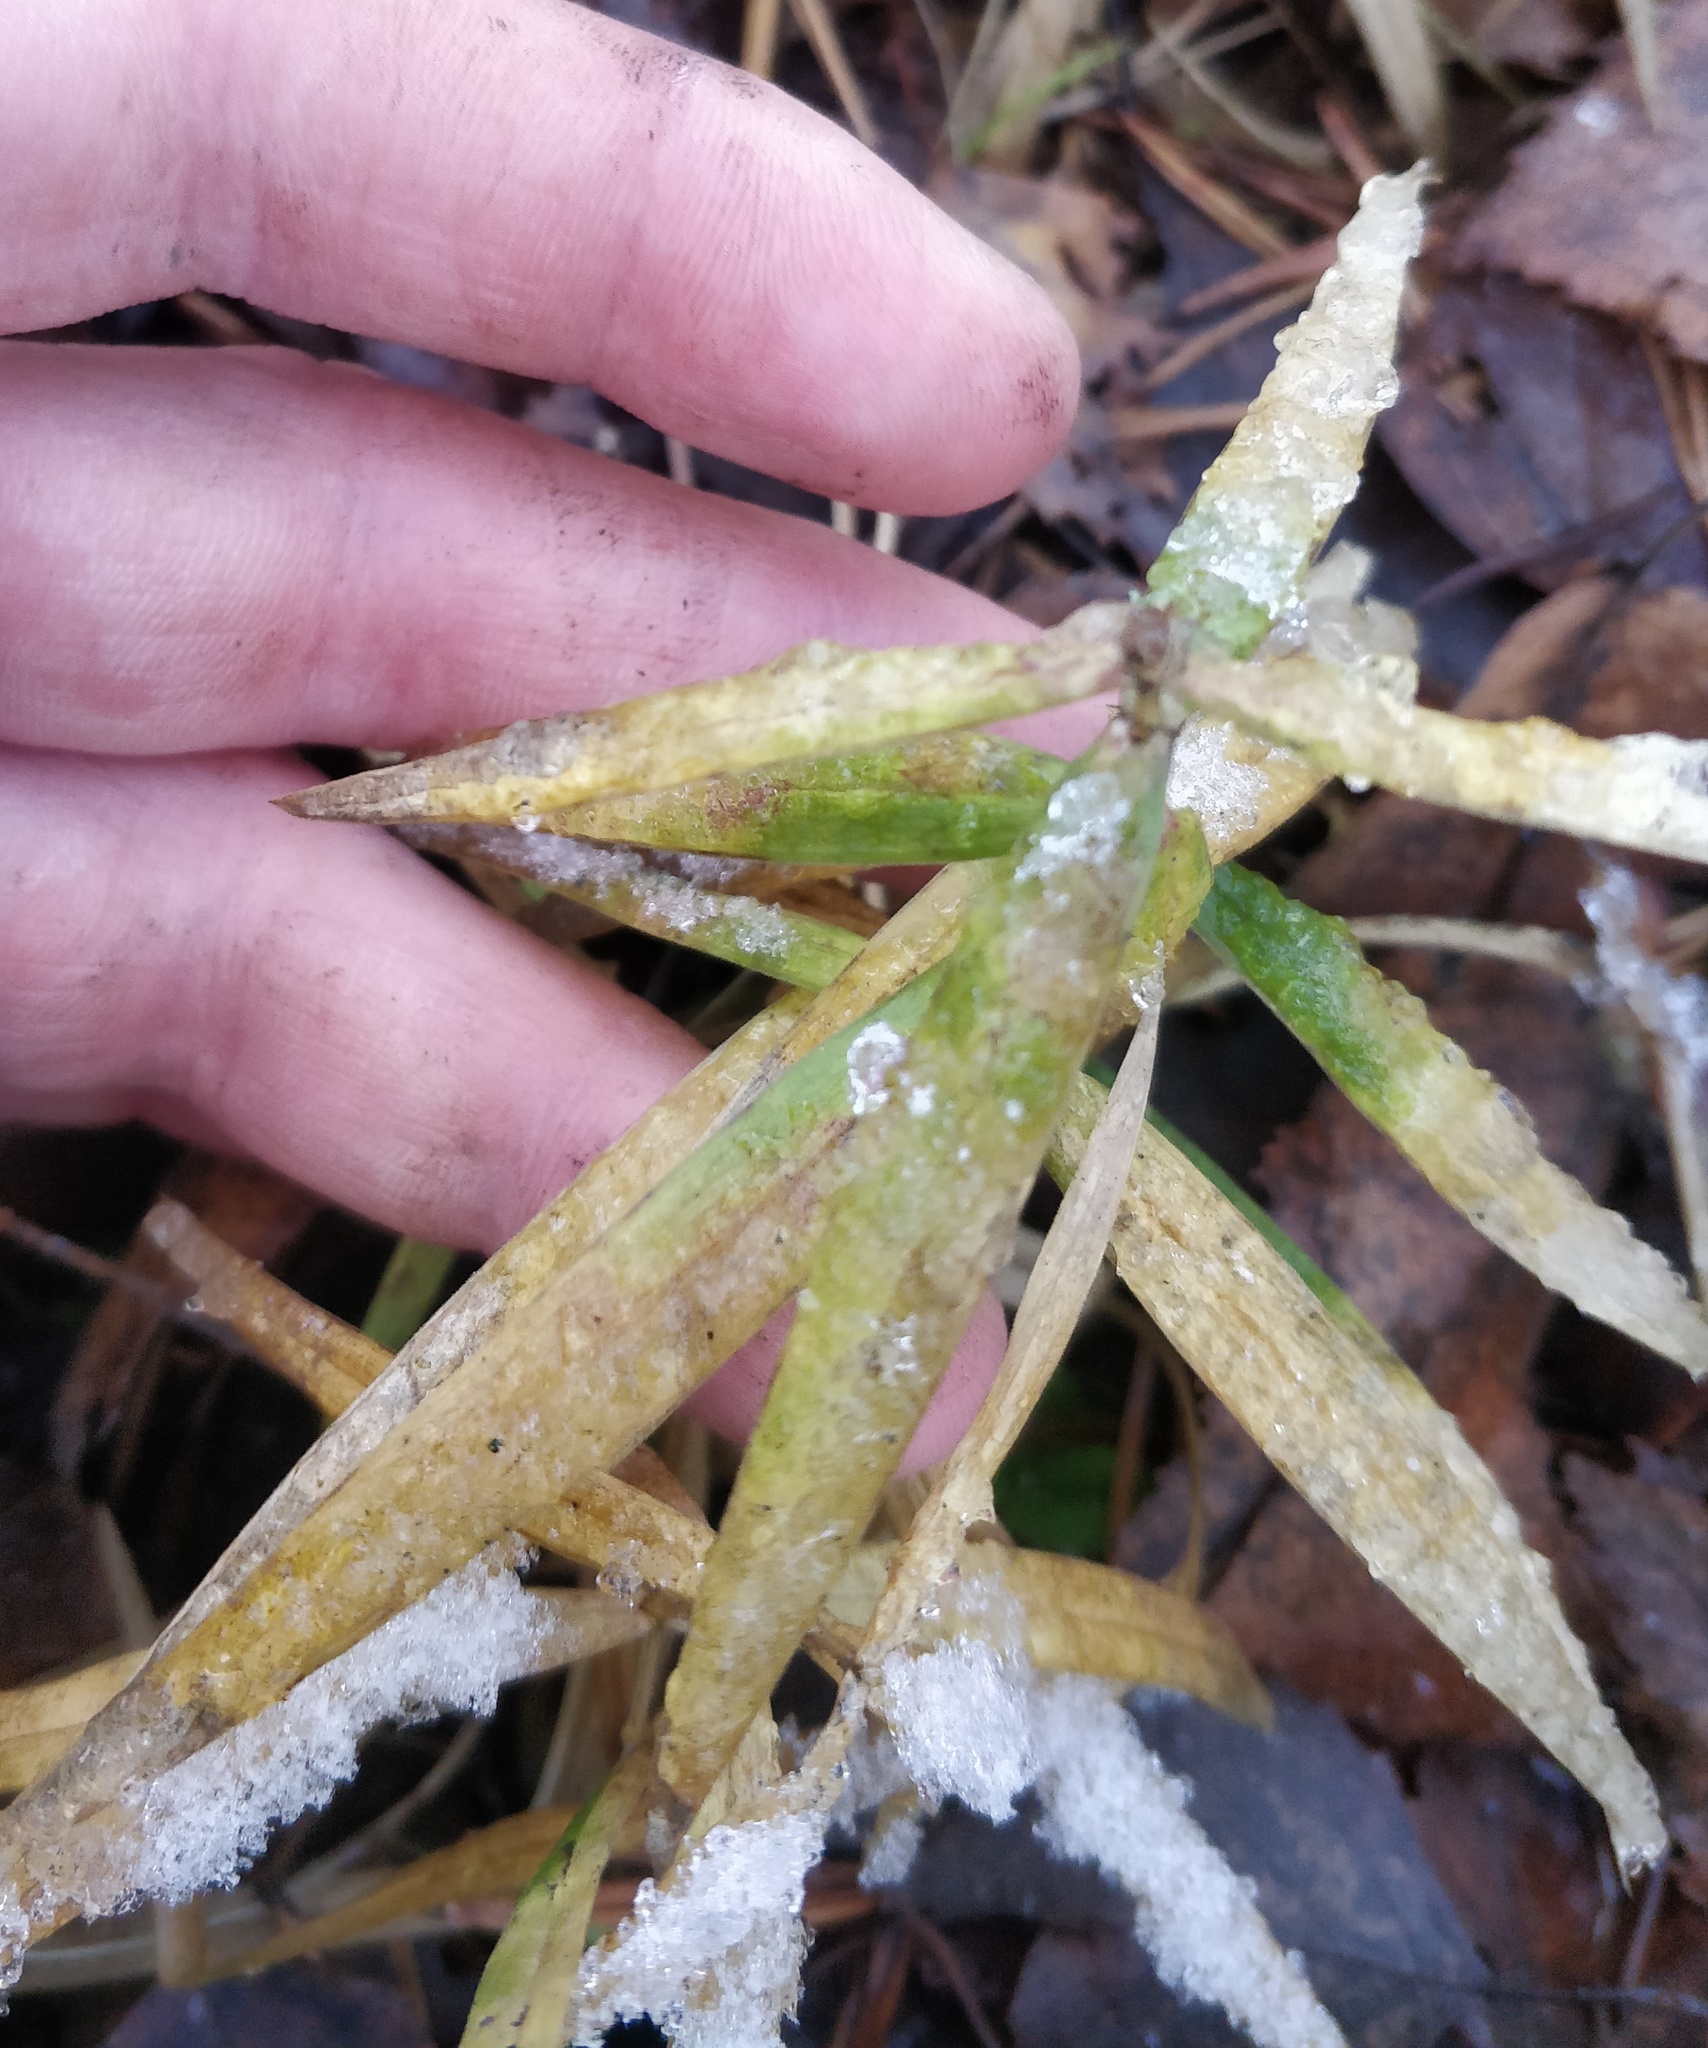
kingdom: Plantae
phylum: Tracheophyta
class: Magnoliopsida
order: Caryophyllales
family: Caryophyllaceae
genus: Rabelera
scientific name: Rabelera holostea
